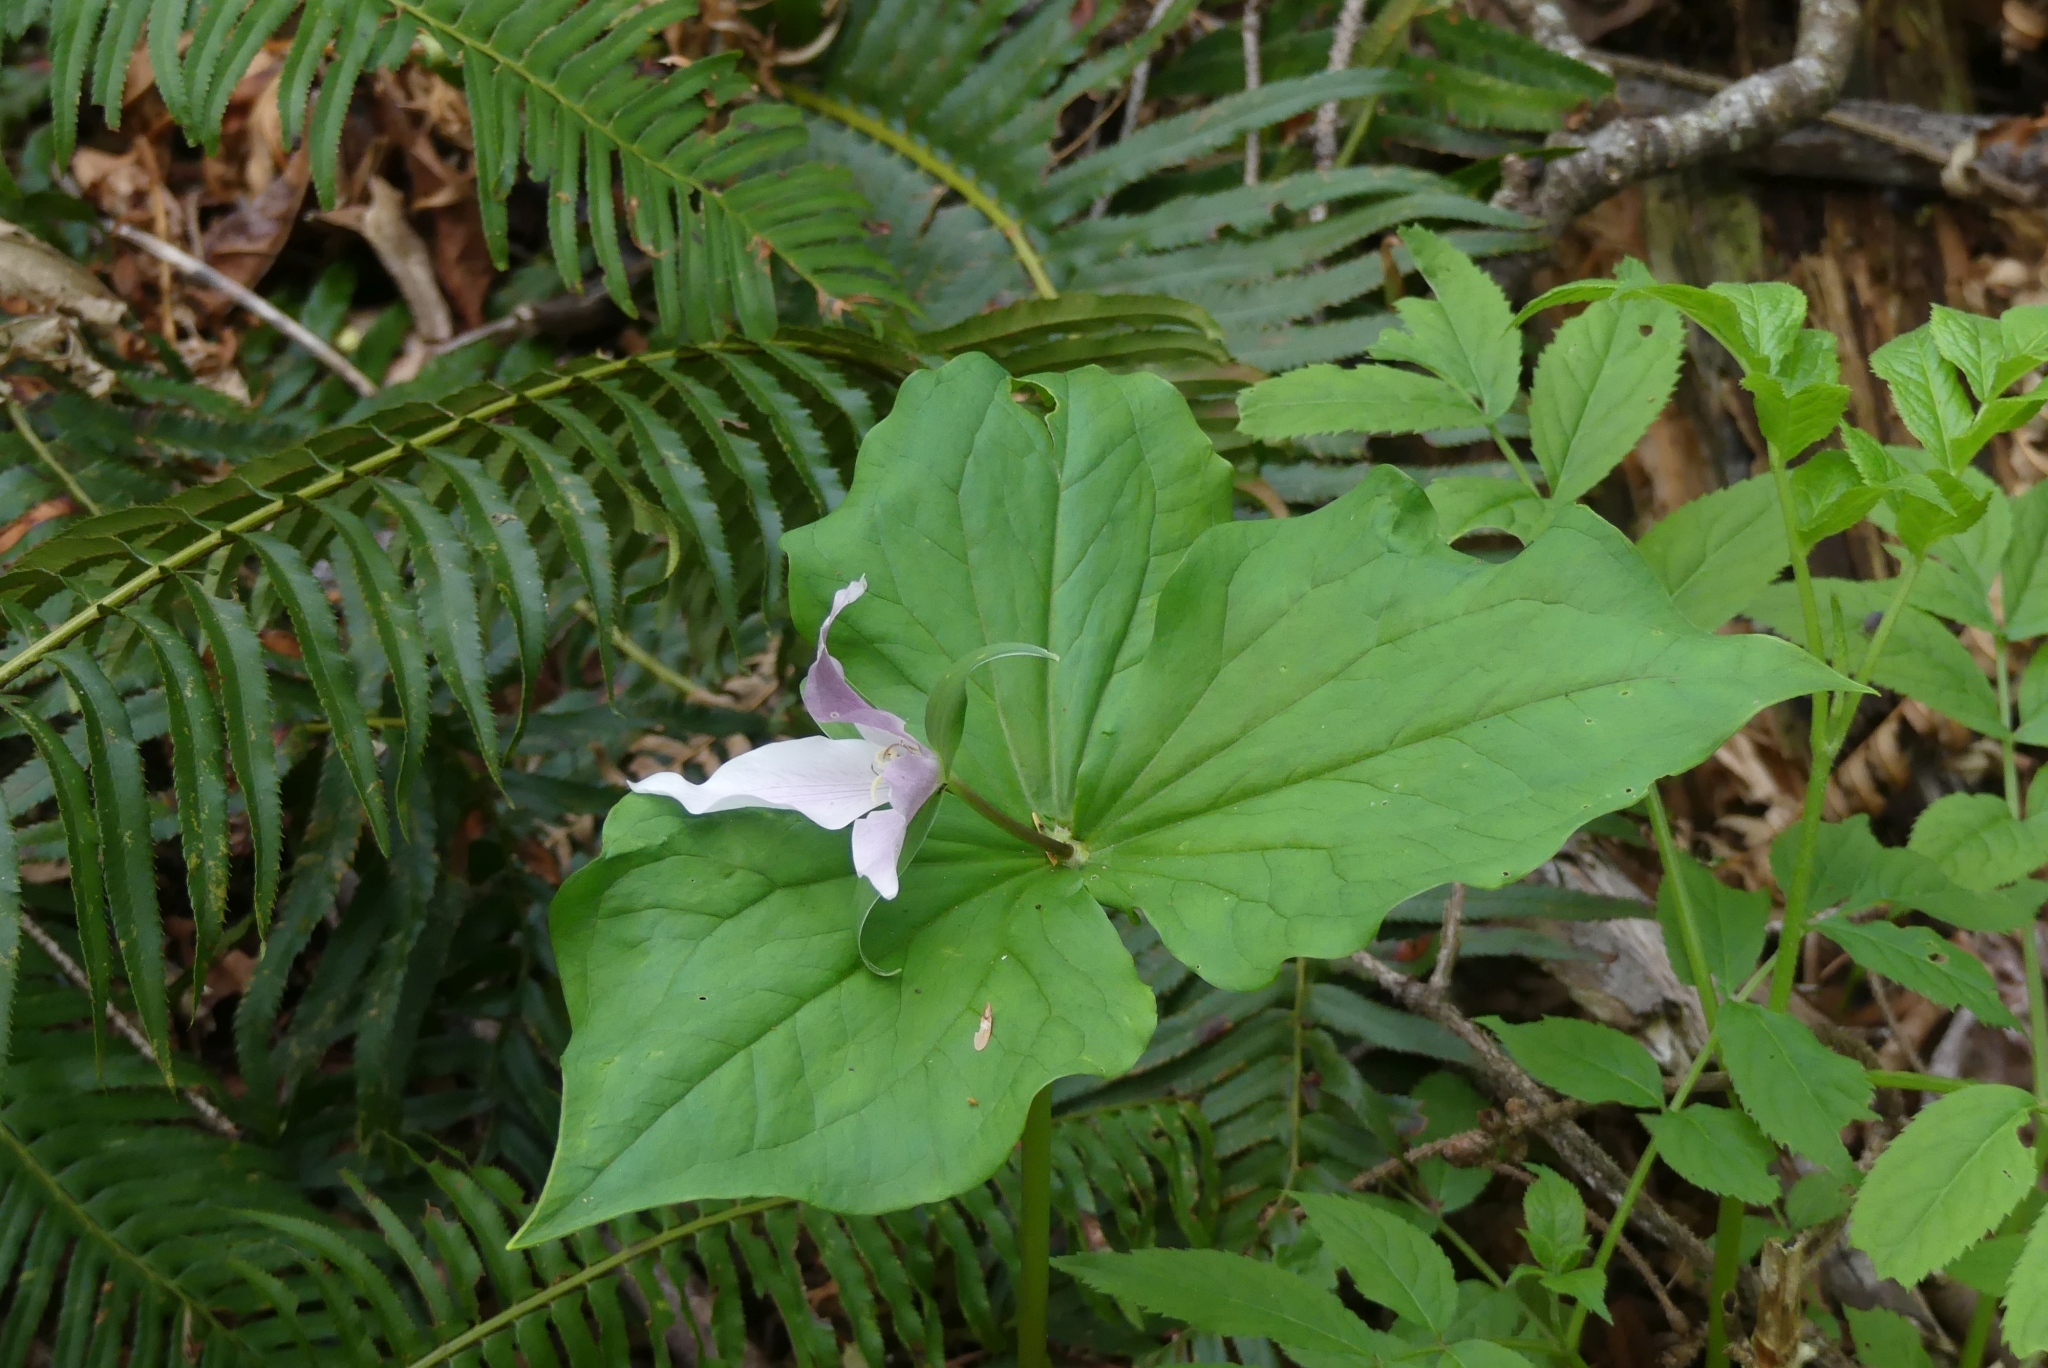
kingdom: Plantae
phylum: Tracheophyta
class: Liliopsida
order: Liliales
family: Melanthiaceae
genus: Trillium
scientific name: Trillium ovatum
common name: Pacific trillium
